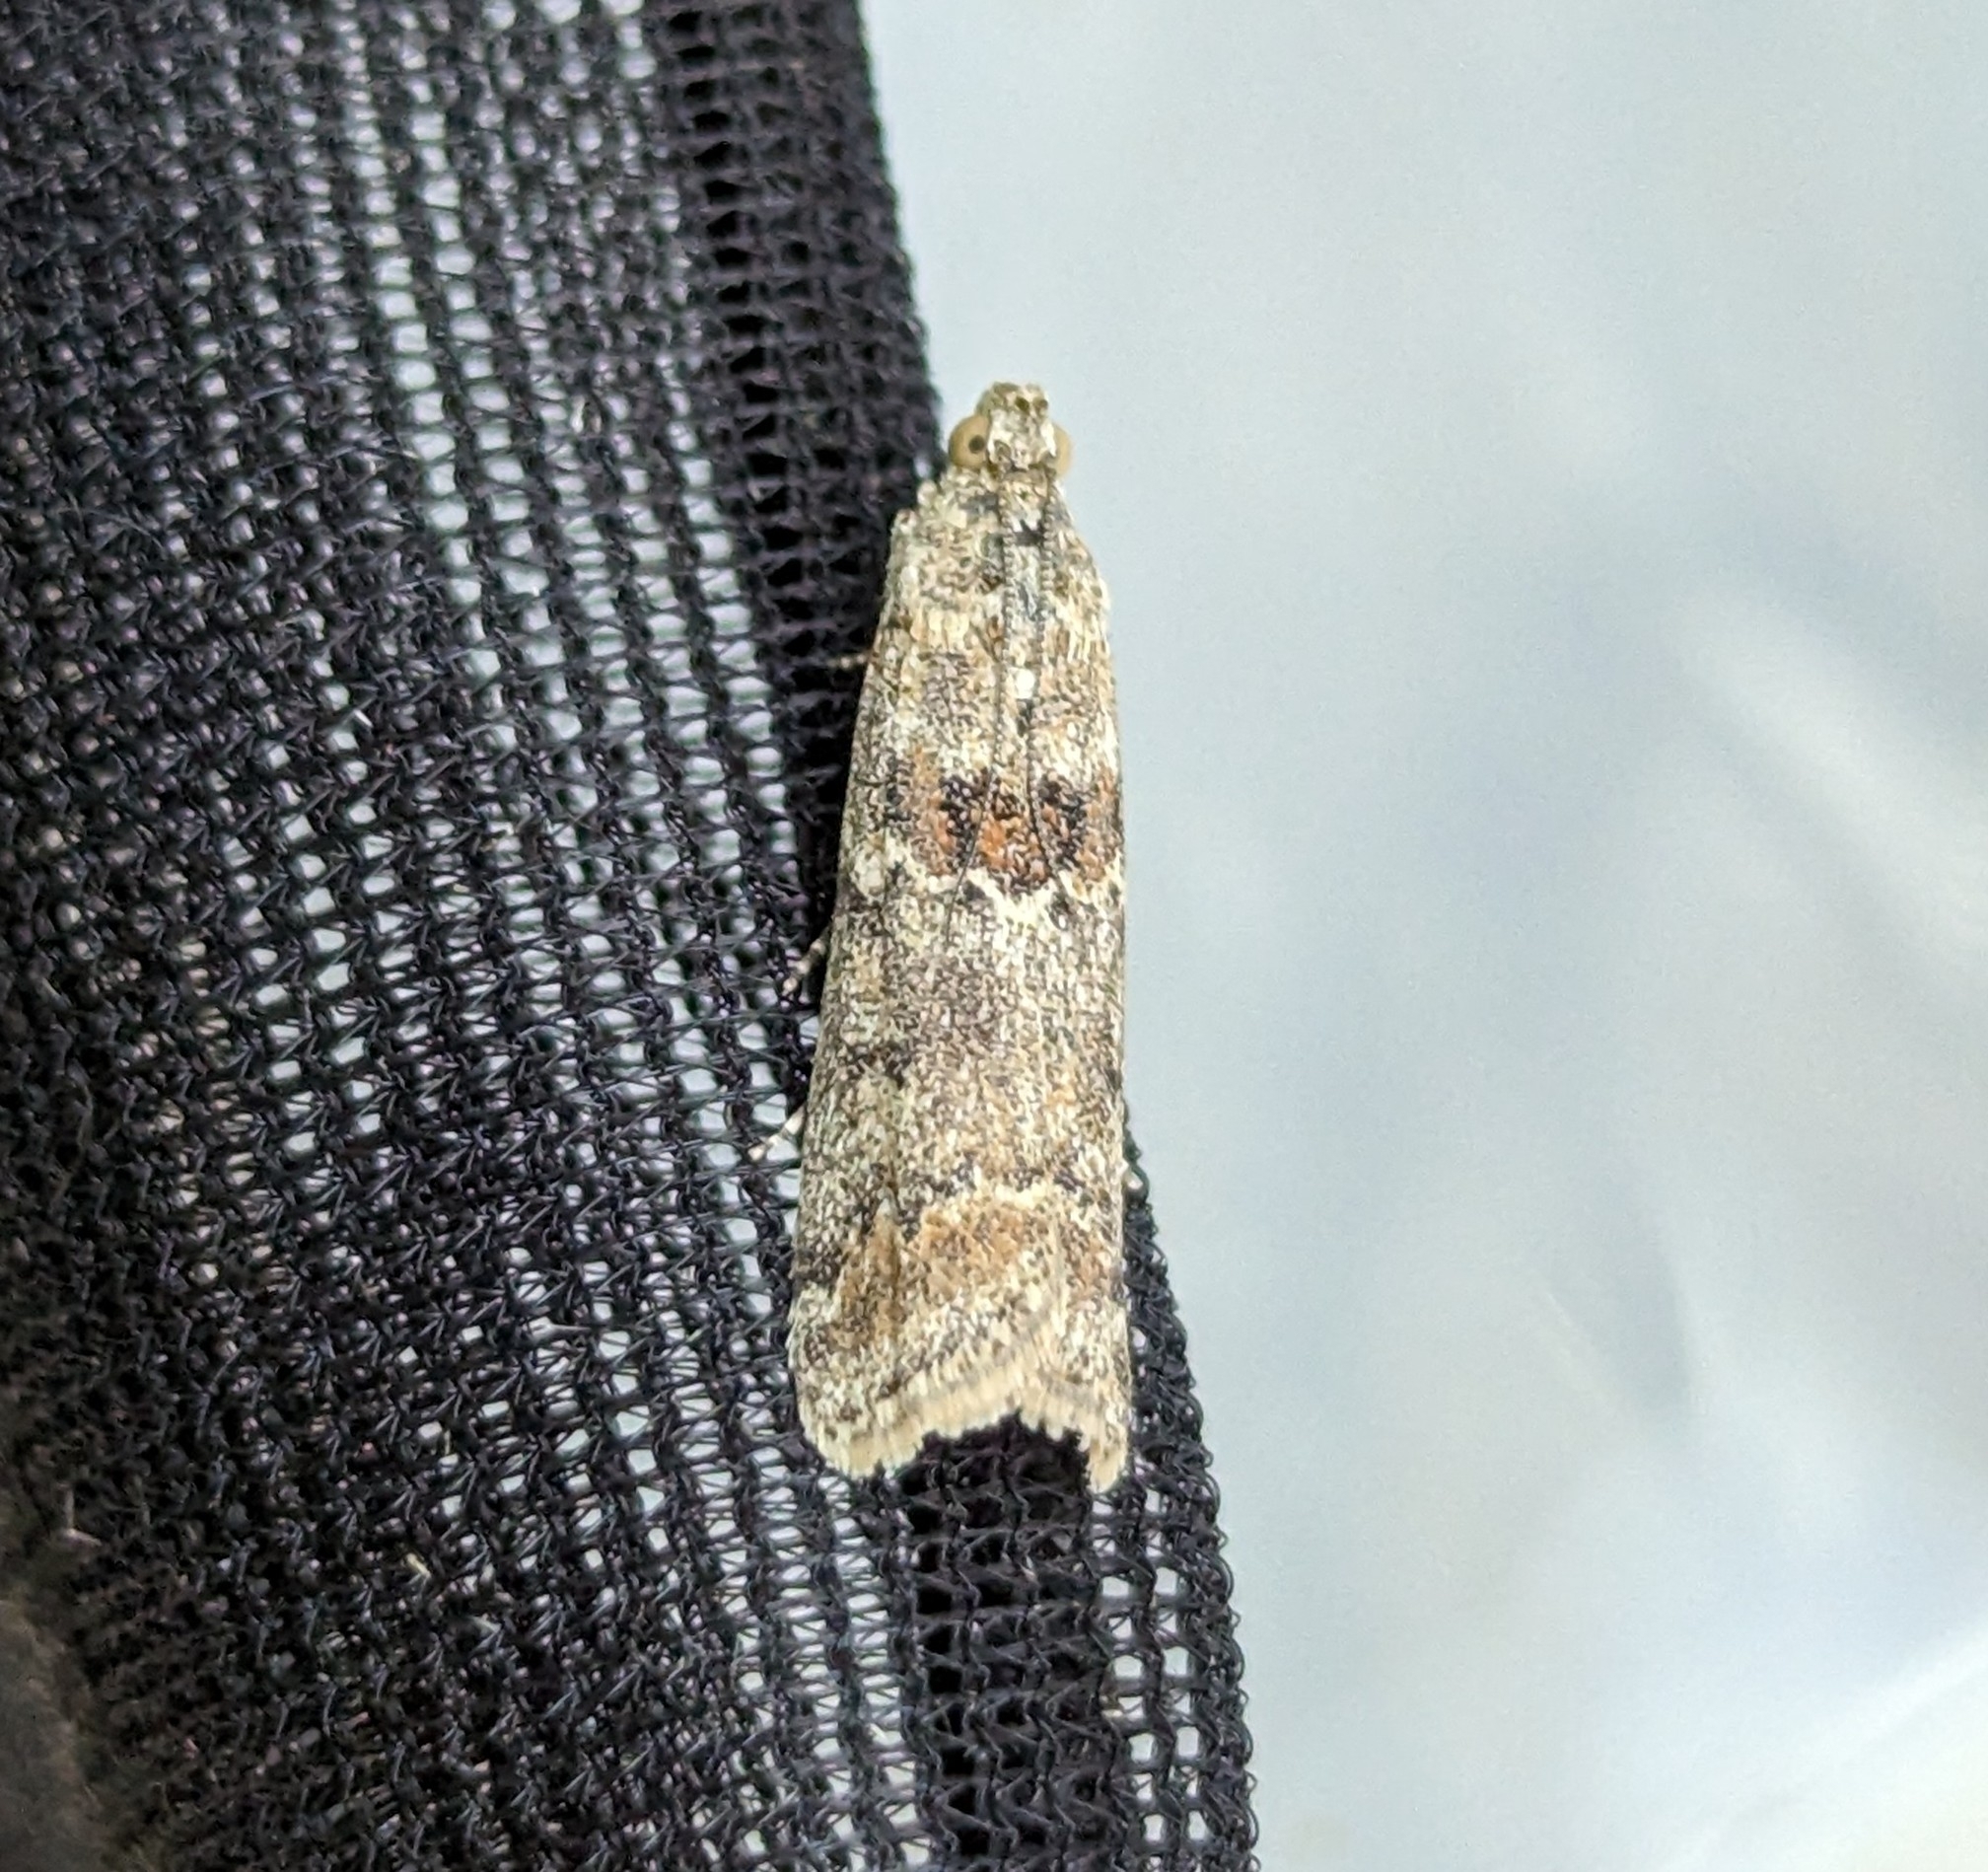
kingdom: Animalia
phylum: Arthropoda
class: Insecta
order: Lepidoptera
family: Pyralidae
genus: Ancylosis
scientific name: Ancylosis undulatella
